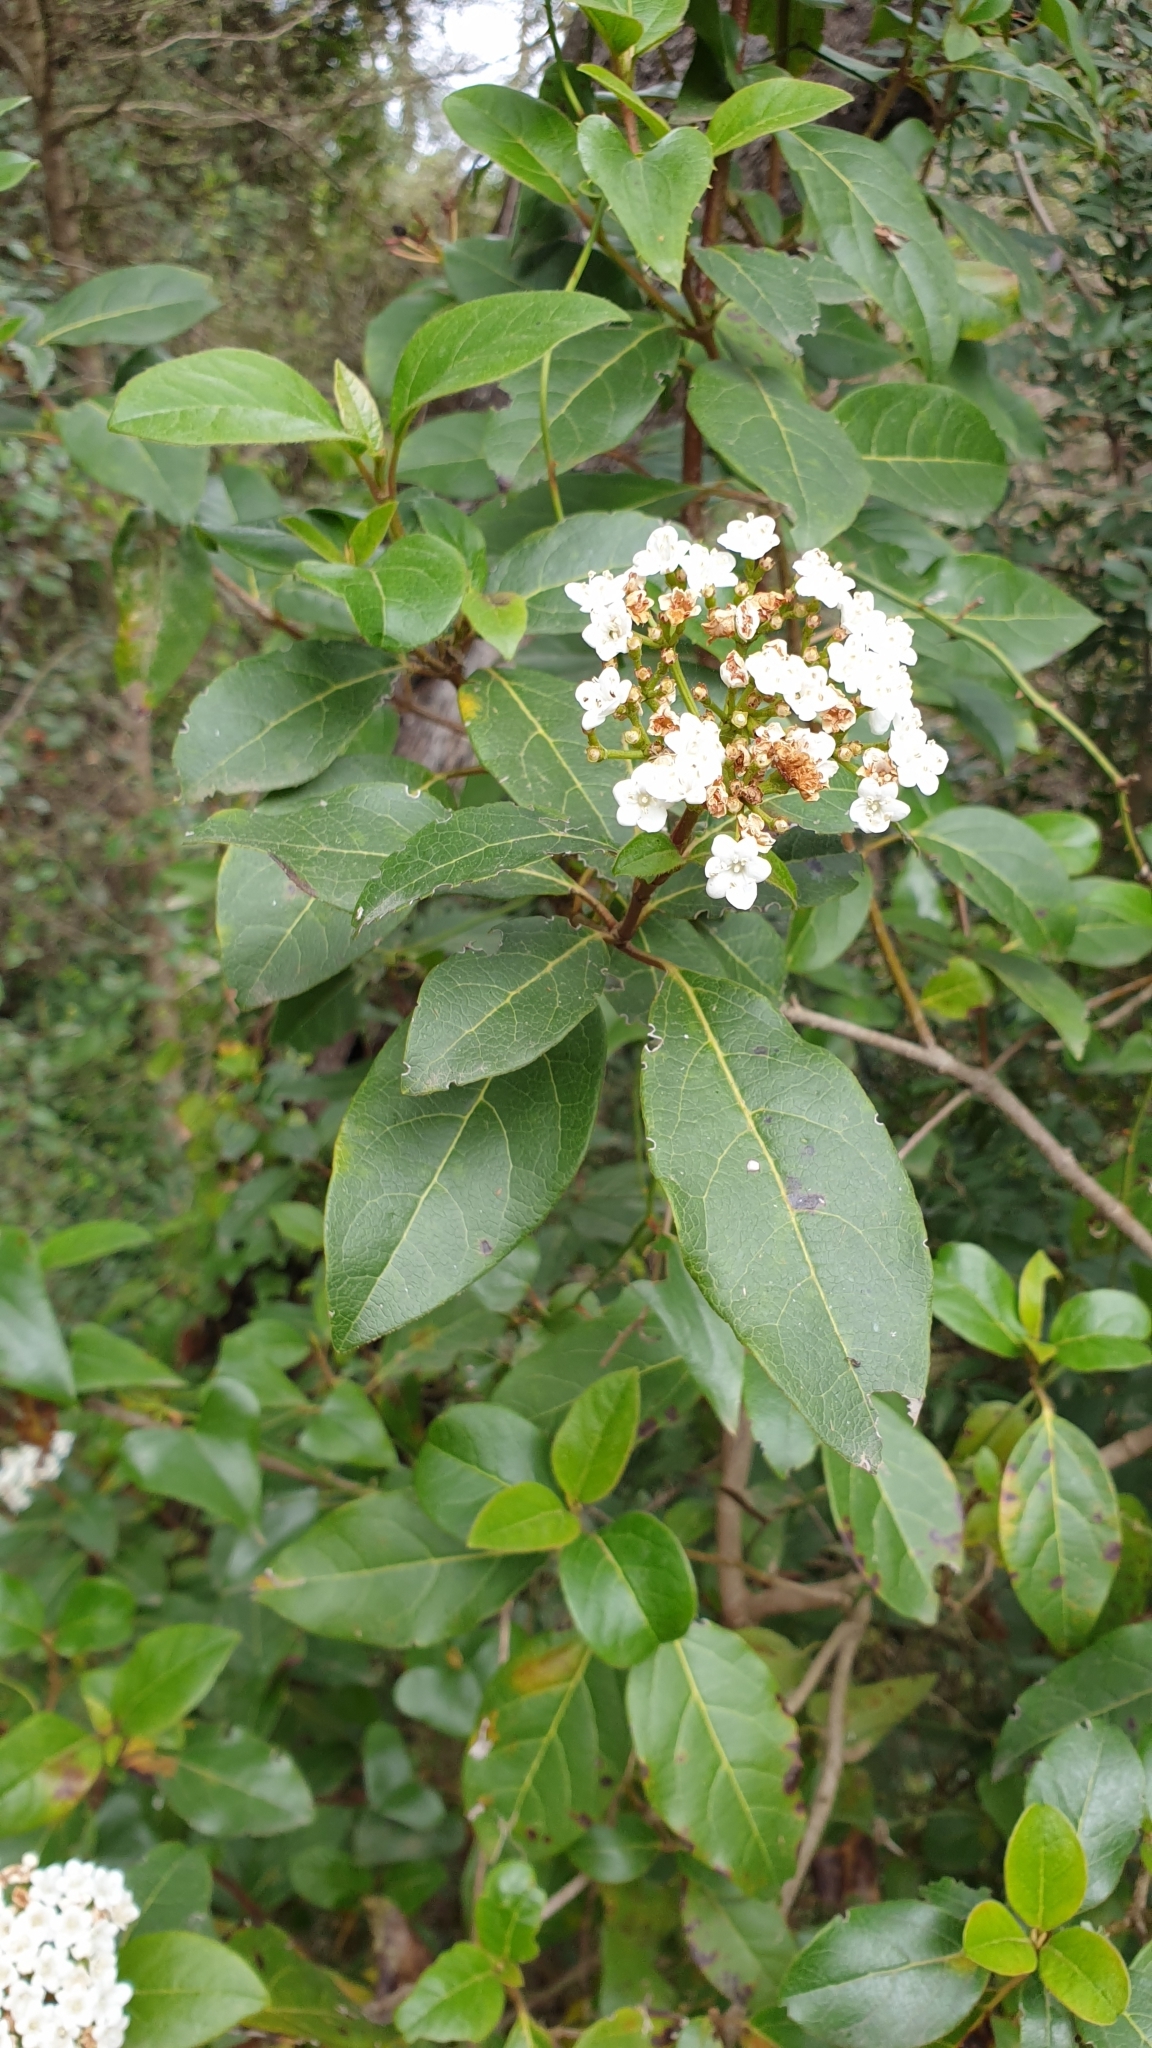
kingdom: Plantae
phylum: Tracheophyta
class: Magnoliopsida
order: Dipsacales
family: Viburnaceae
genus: Viburnum
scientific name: Viburnum tinus
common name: Laurustinus
